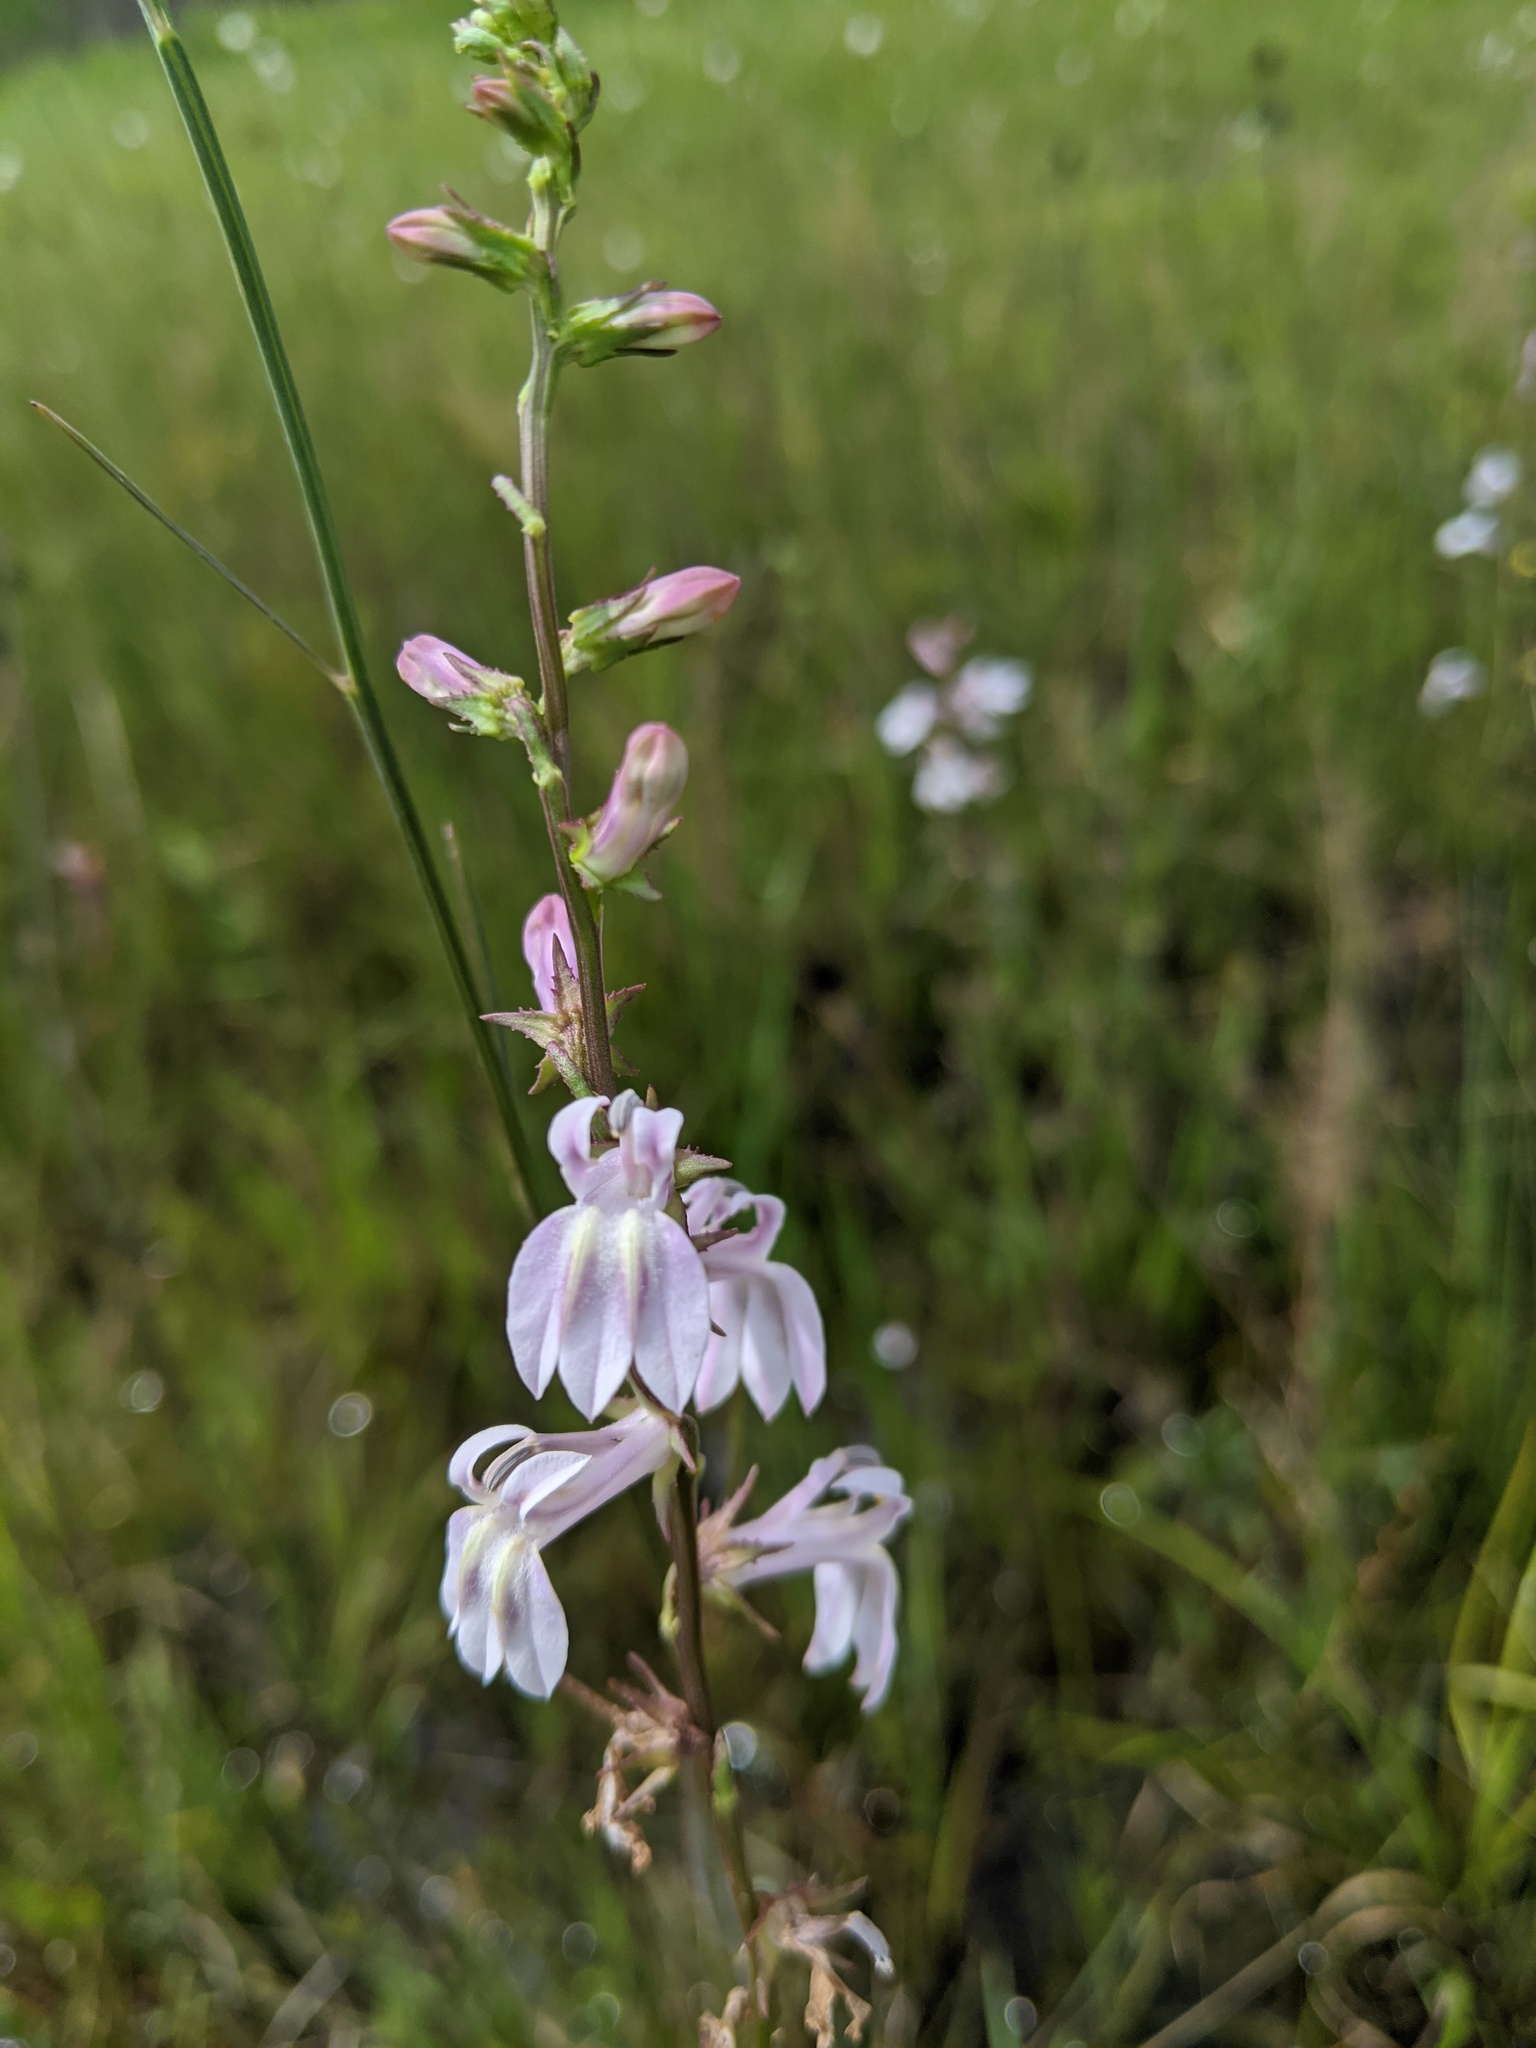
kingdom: Plantae
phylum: Tracheophyta
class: Magnoliopsida
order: Asterales
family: Campanulaceae
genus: Lobelia
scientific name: Lobelia floridana
